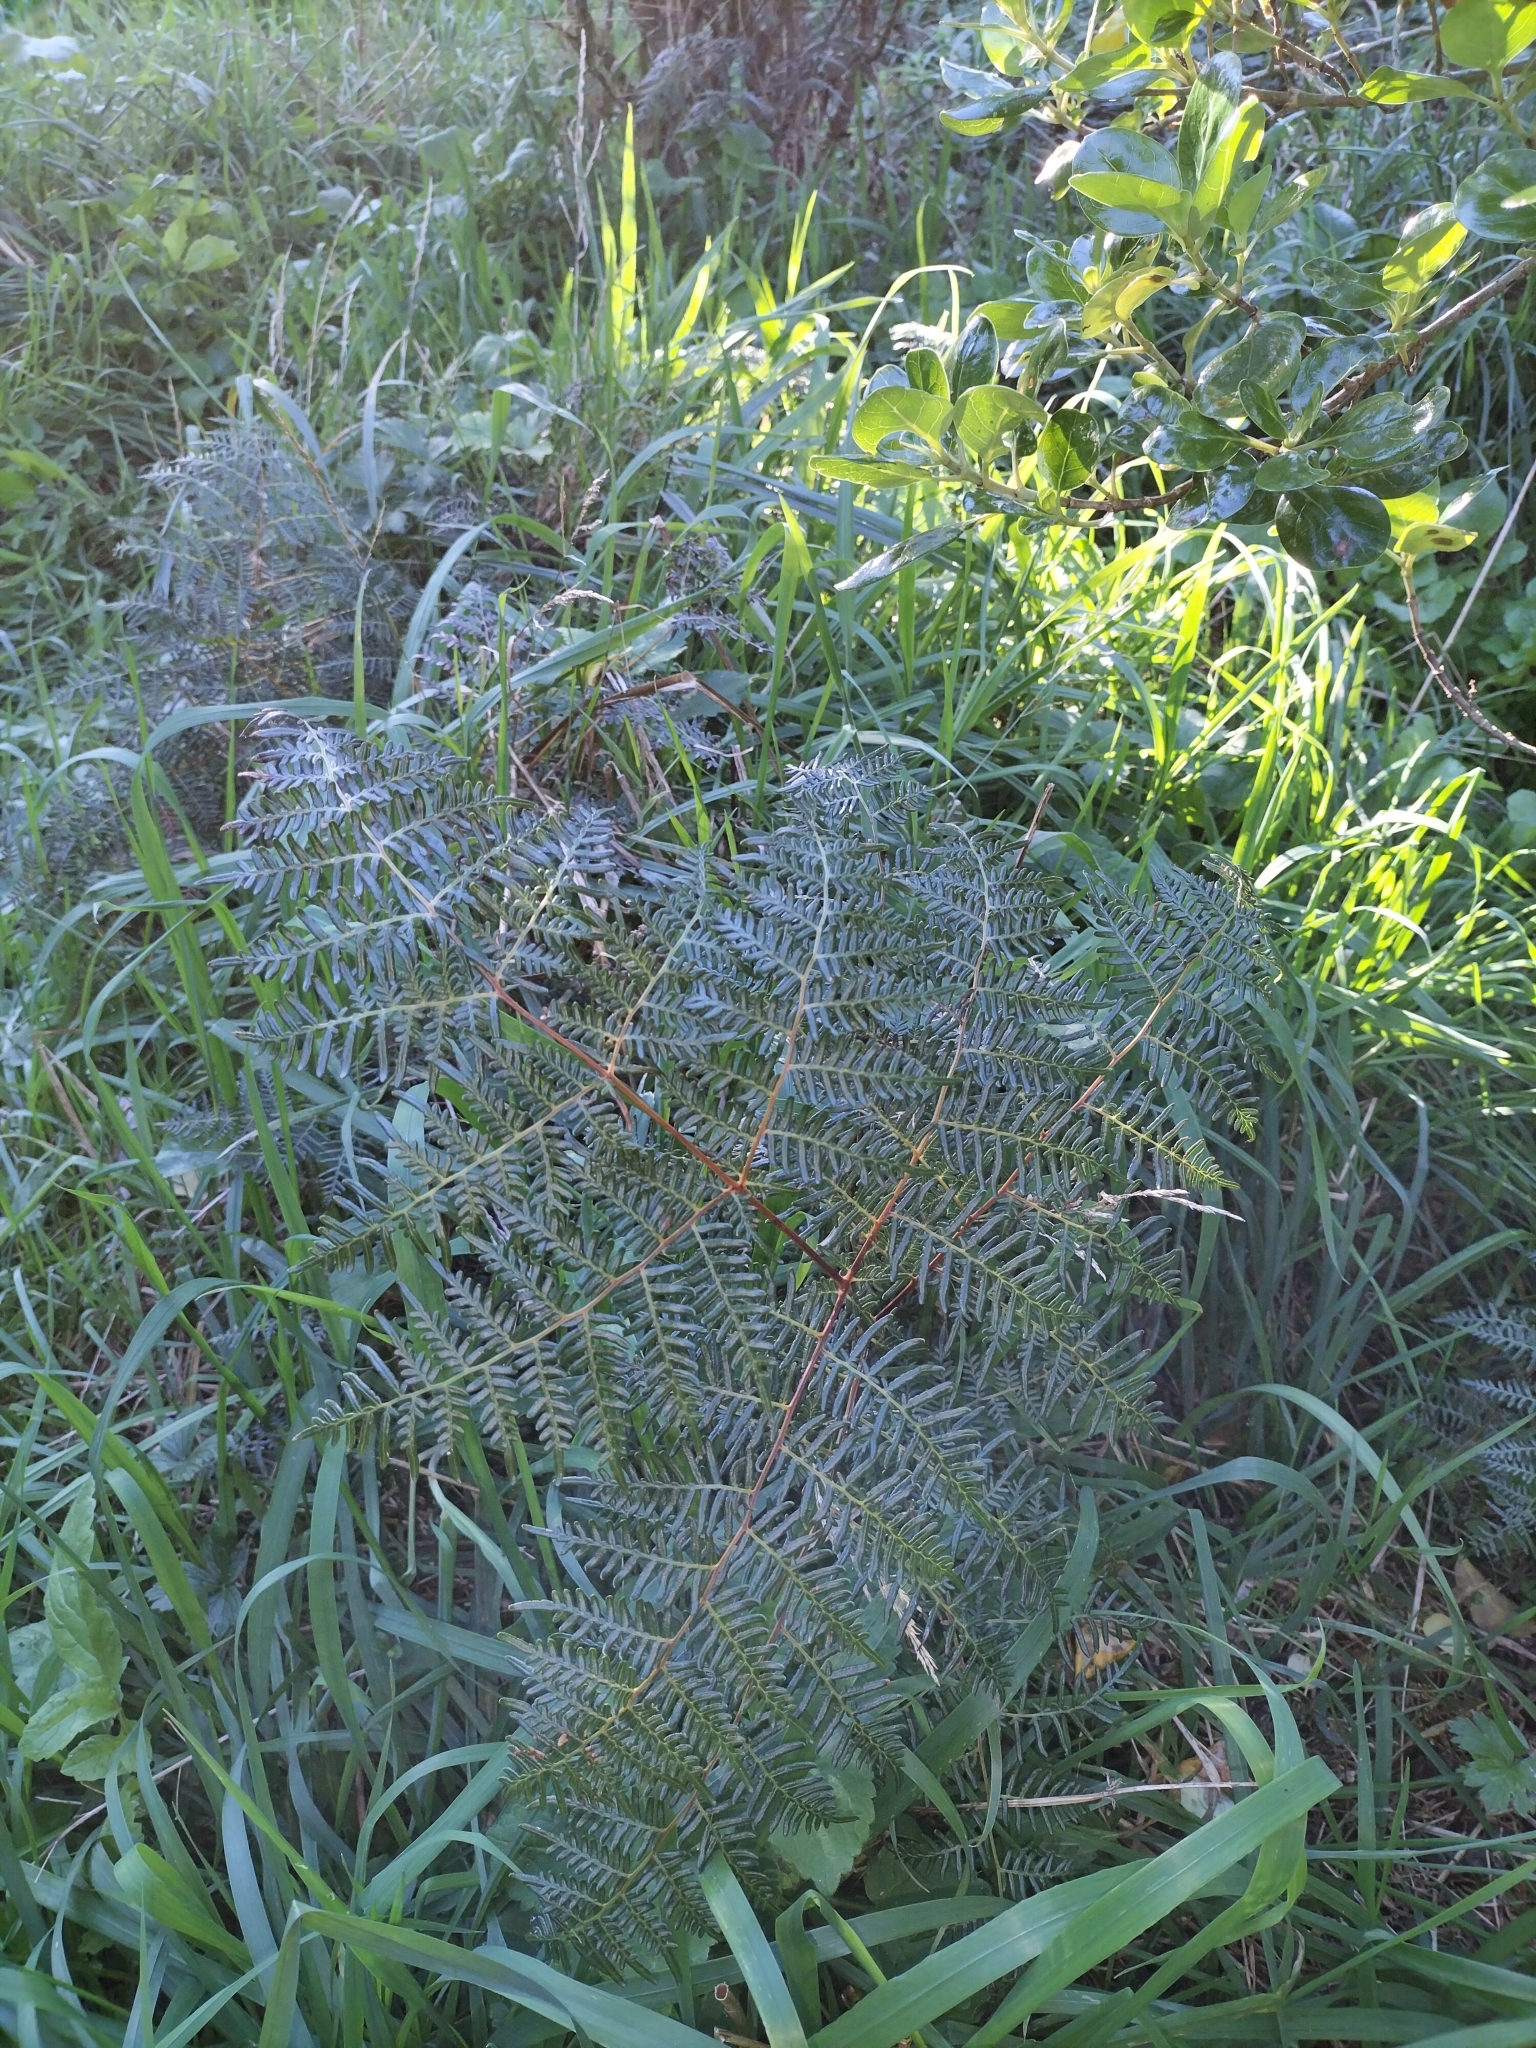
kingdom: Plantae
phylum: Tracheophyta
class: Polypodiopsida
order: Polypodiales
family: Dennstaedtiaceae
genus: Pteridium
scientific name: Pteridium esculentum
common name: Bracken fern
